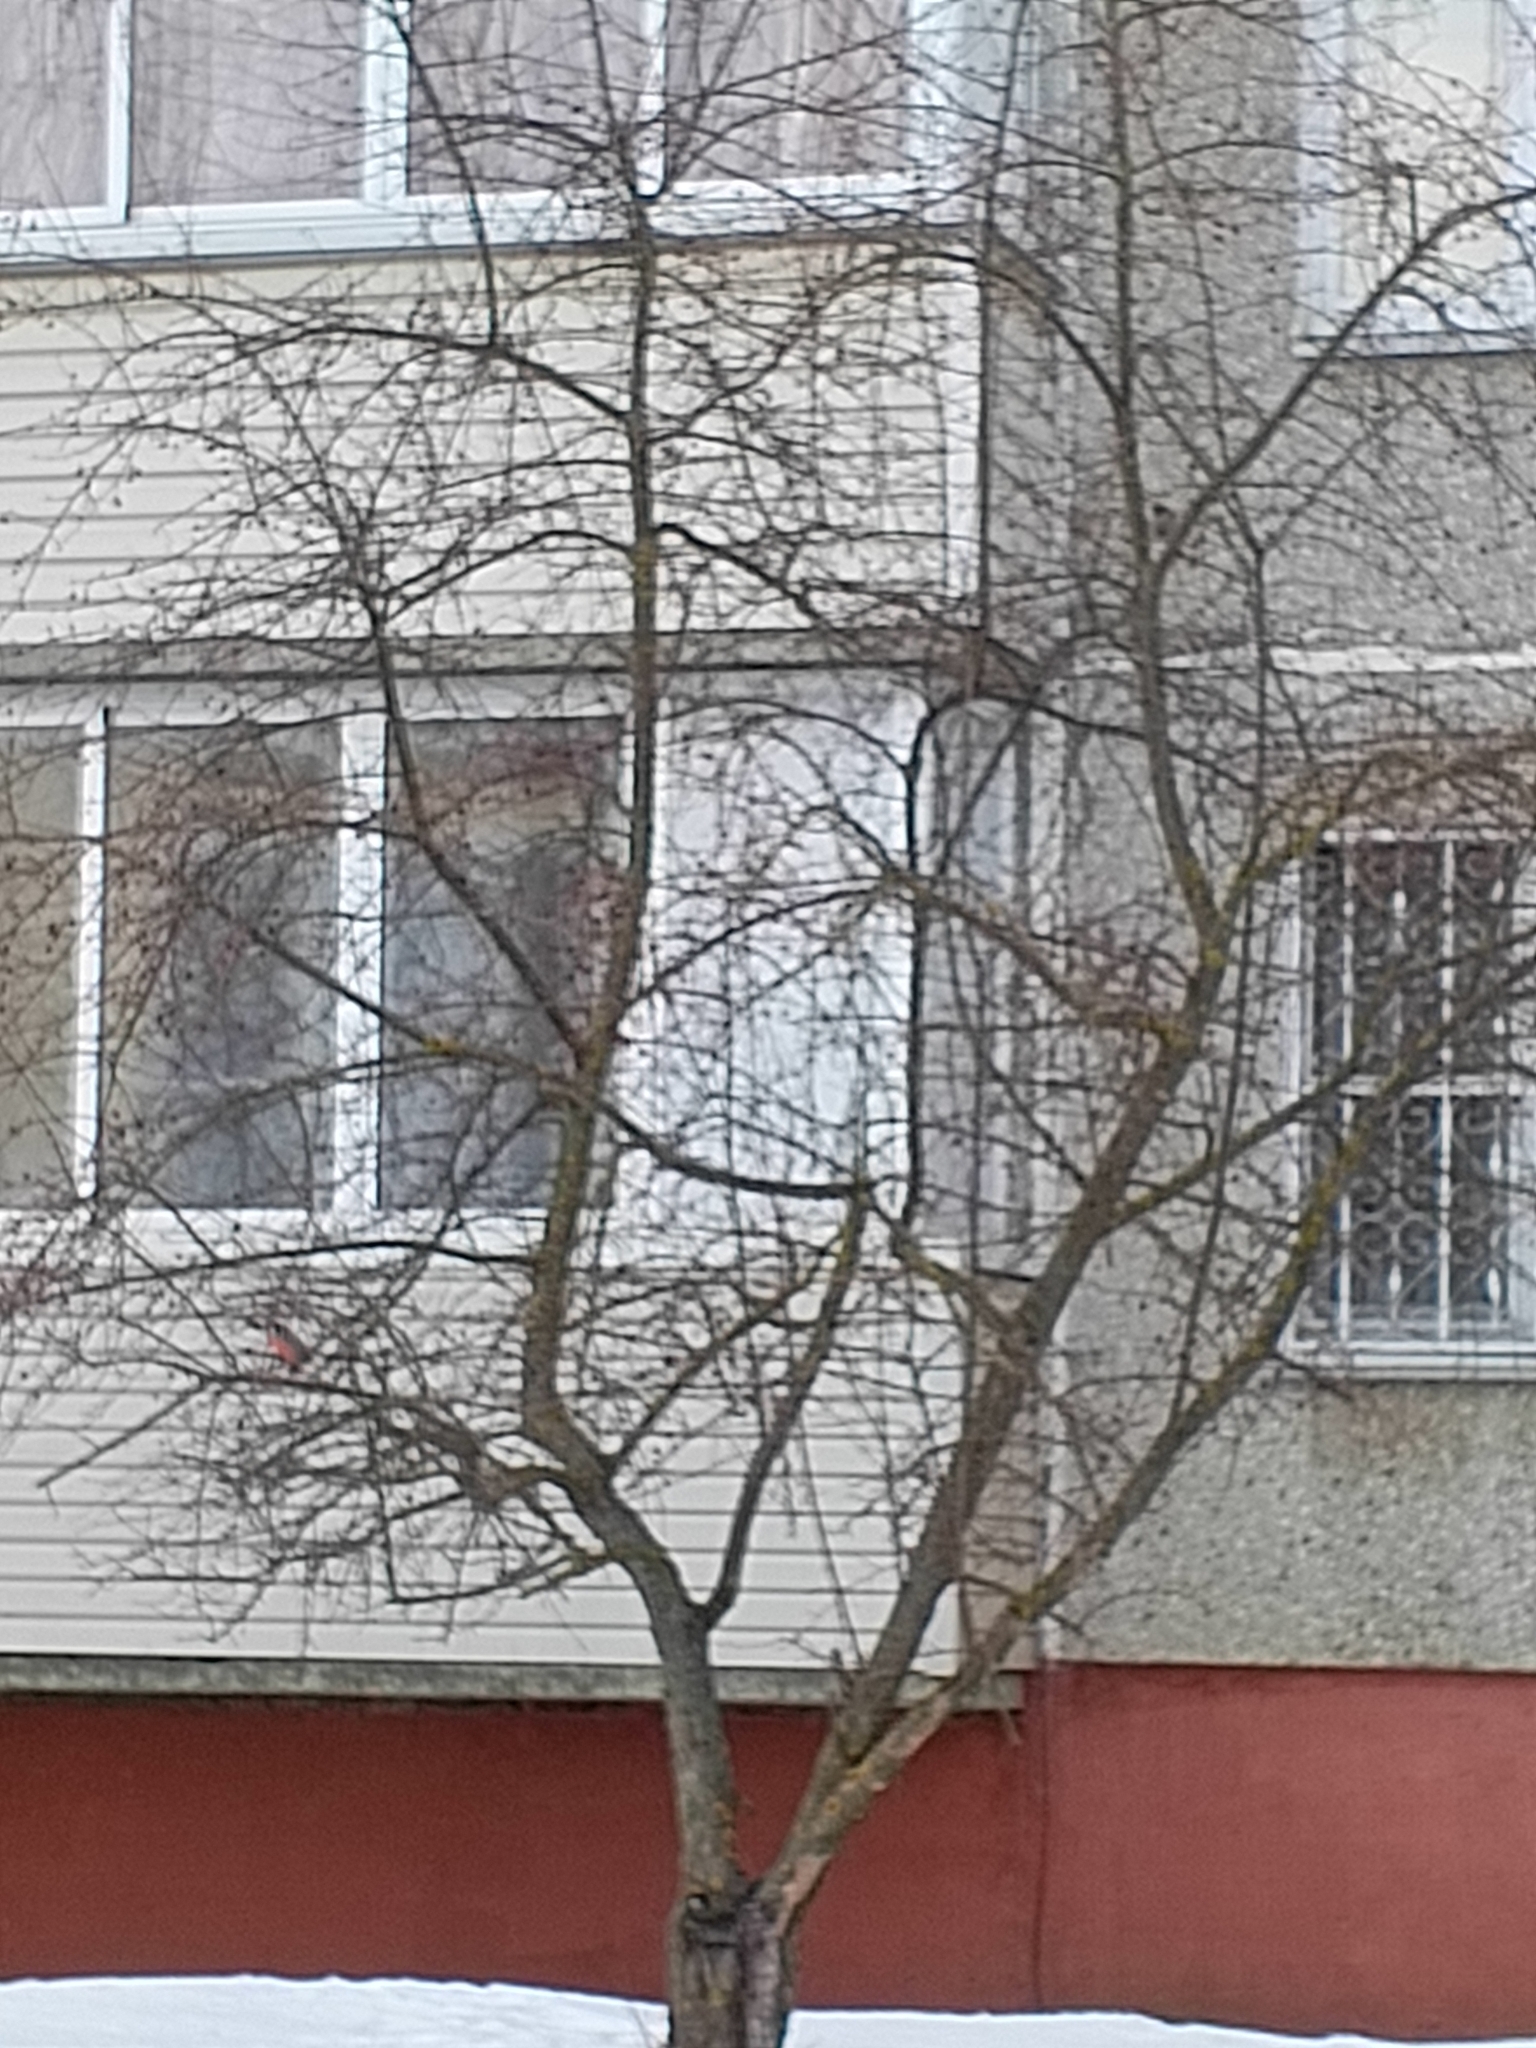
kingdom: Animalia
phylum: Chordata
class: Aves
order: Passeriformes
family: Fringillidae
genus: Pyrrhula
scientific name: Pyrrhula pyrrhula
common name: Eurasian bullfinch
